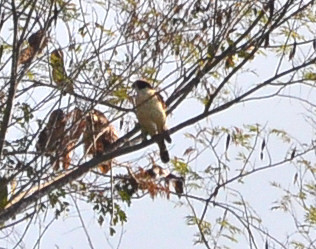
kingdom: Animalia
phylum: Chordata
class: Aves
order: Falconiformes
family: Falconidae
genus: Herpetotheres
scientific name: Herpetotheres cachinnans
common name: Laughing falcon
